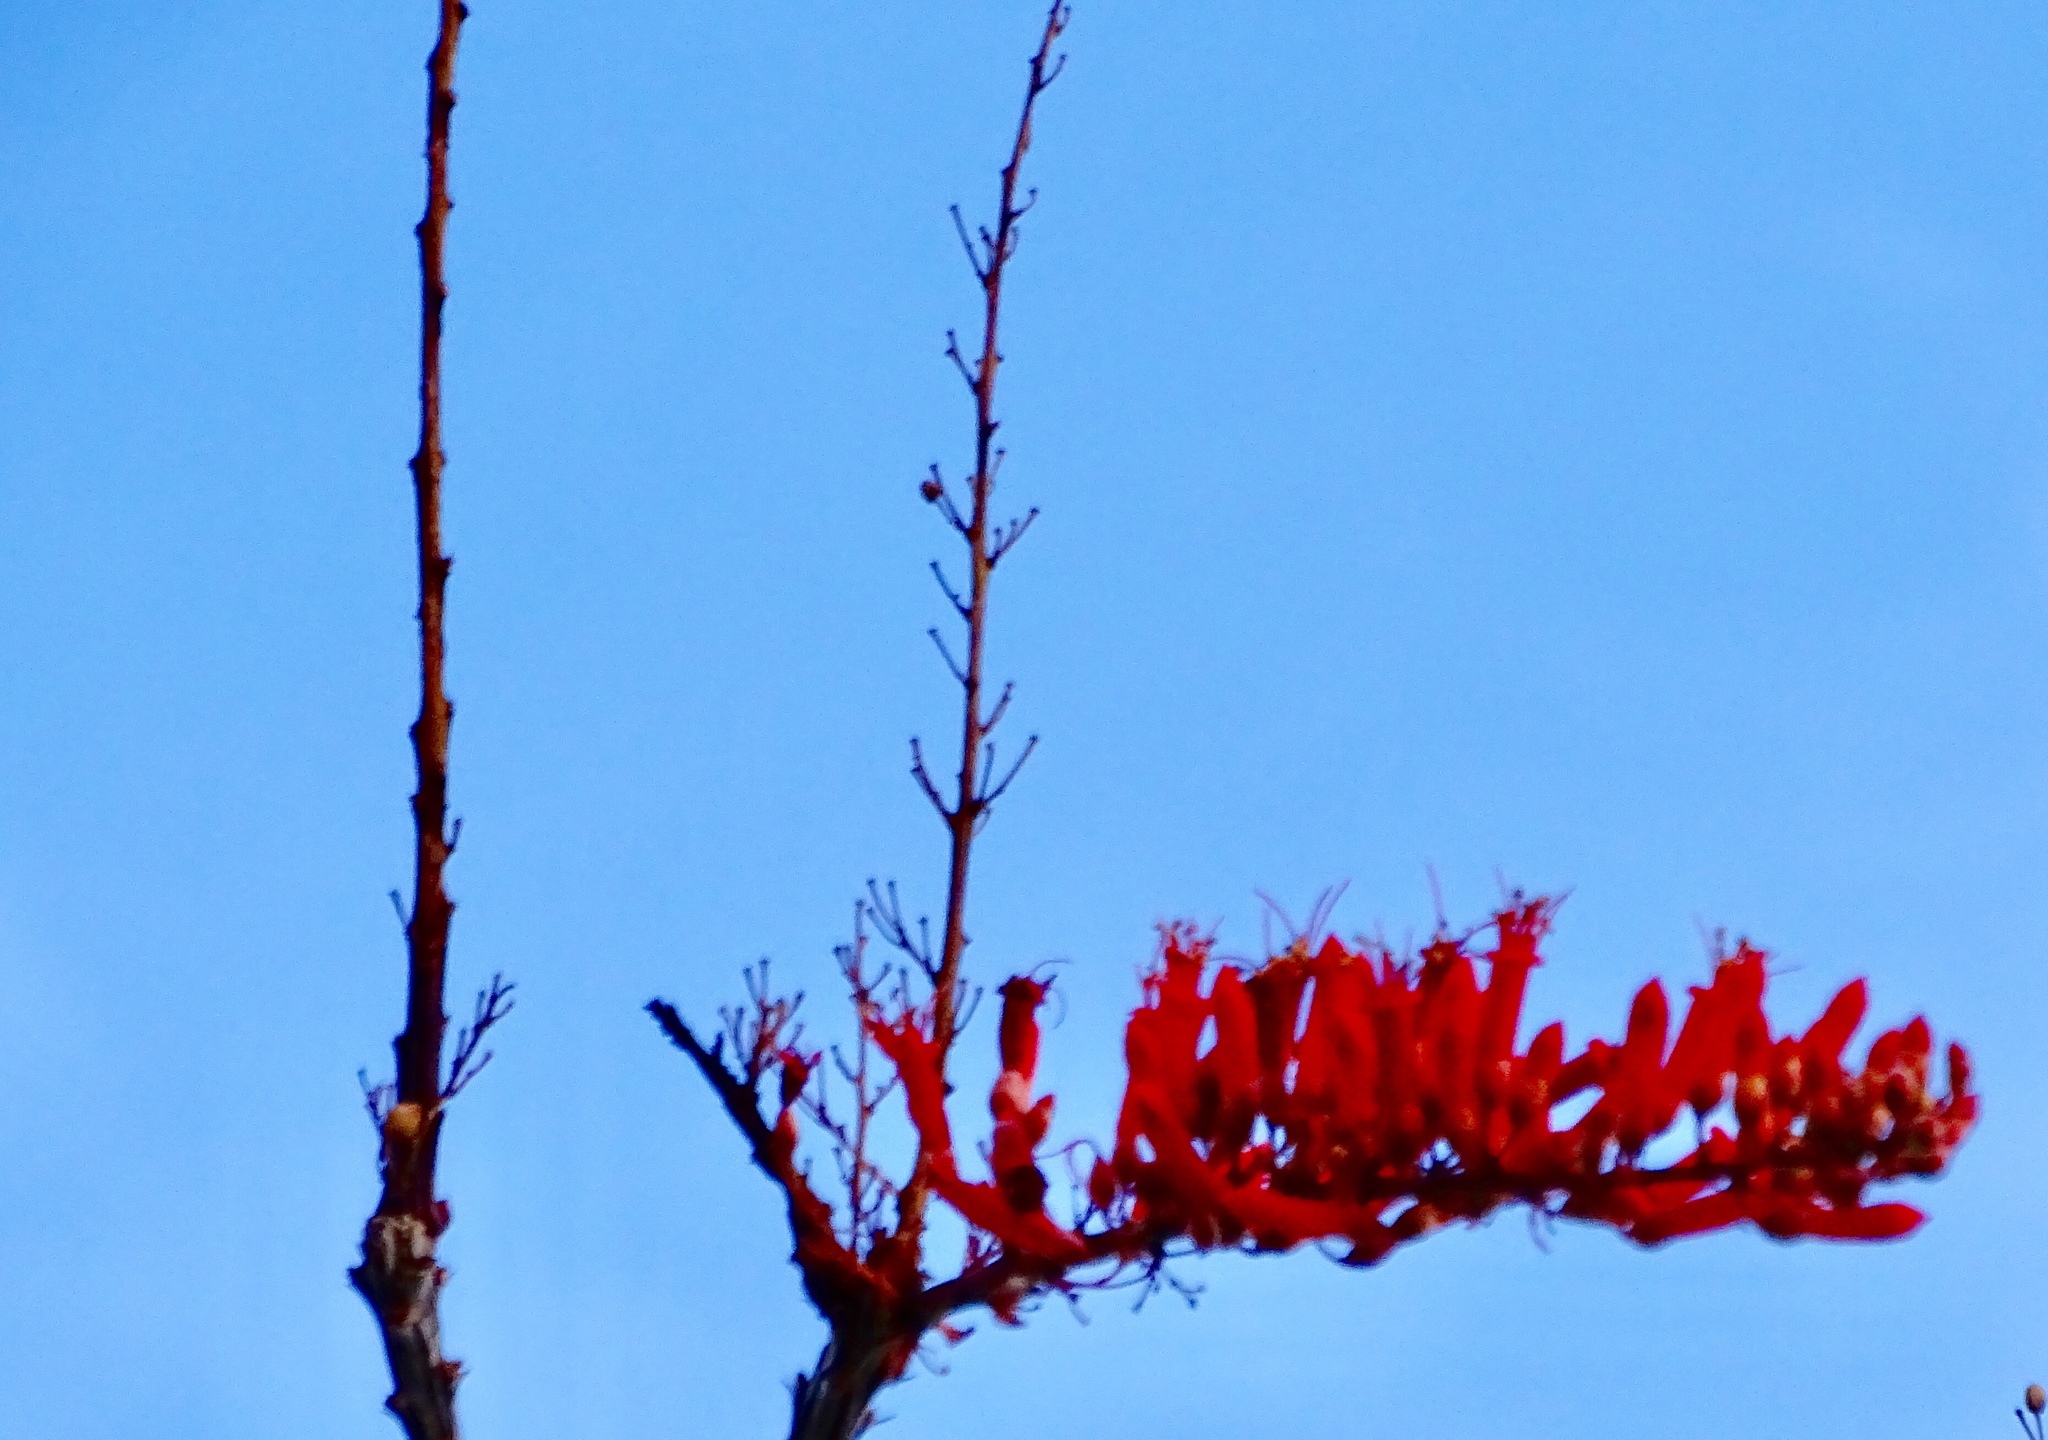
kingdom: Plantae
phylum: Tracheophyta
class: Magnoliopsida
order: Ericales
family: Fouquieriaceae
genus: Fouquieria
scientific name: Fouquieria splendens
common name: Vine-cactus
